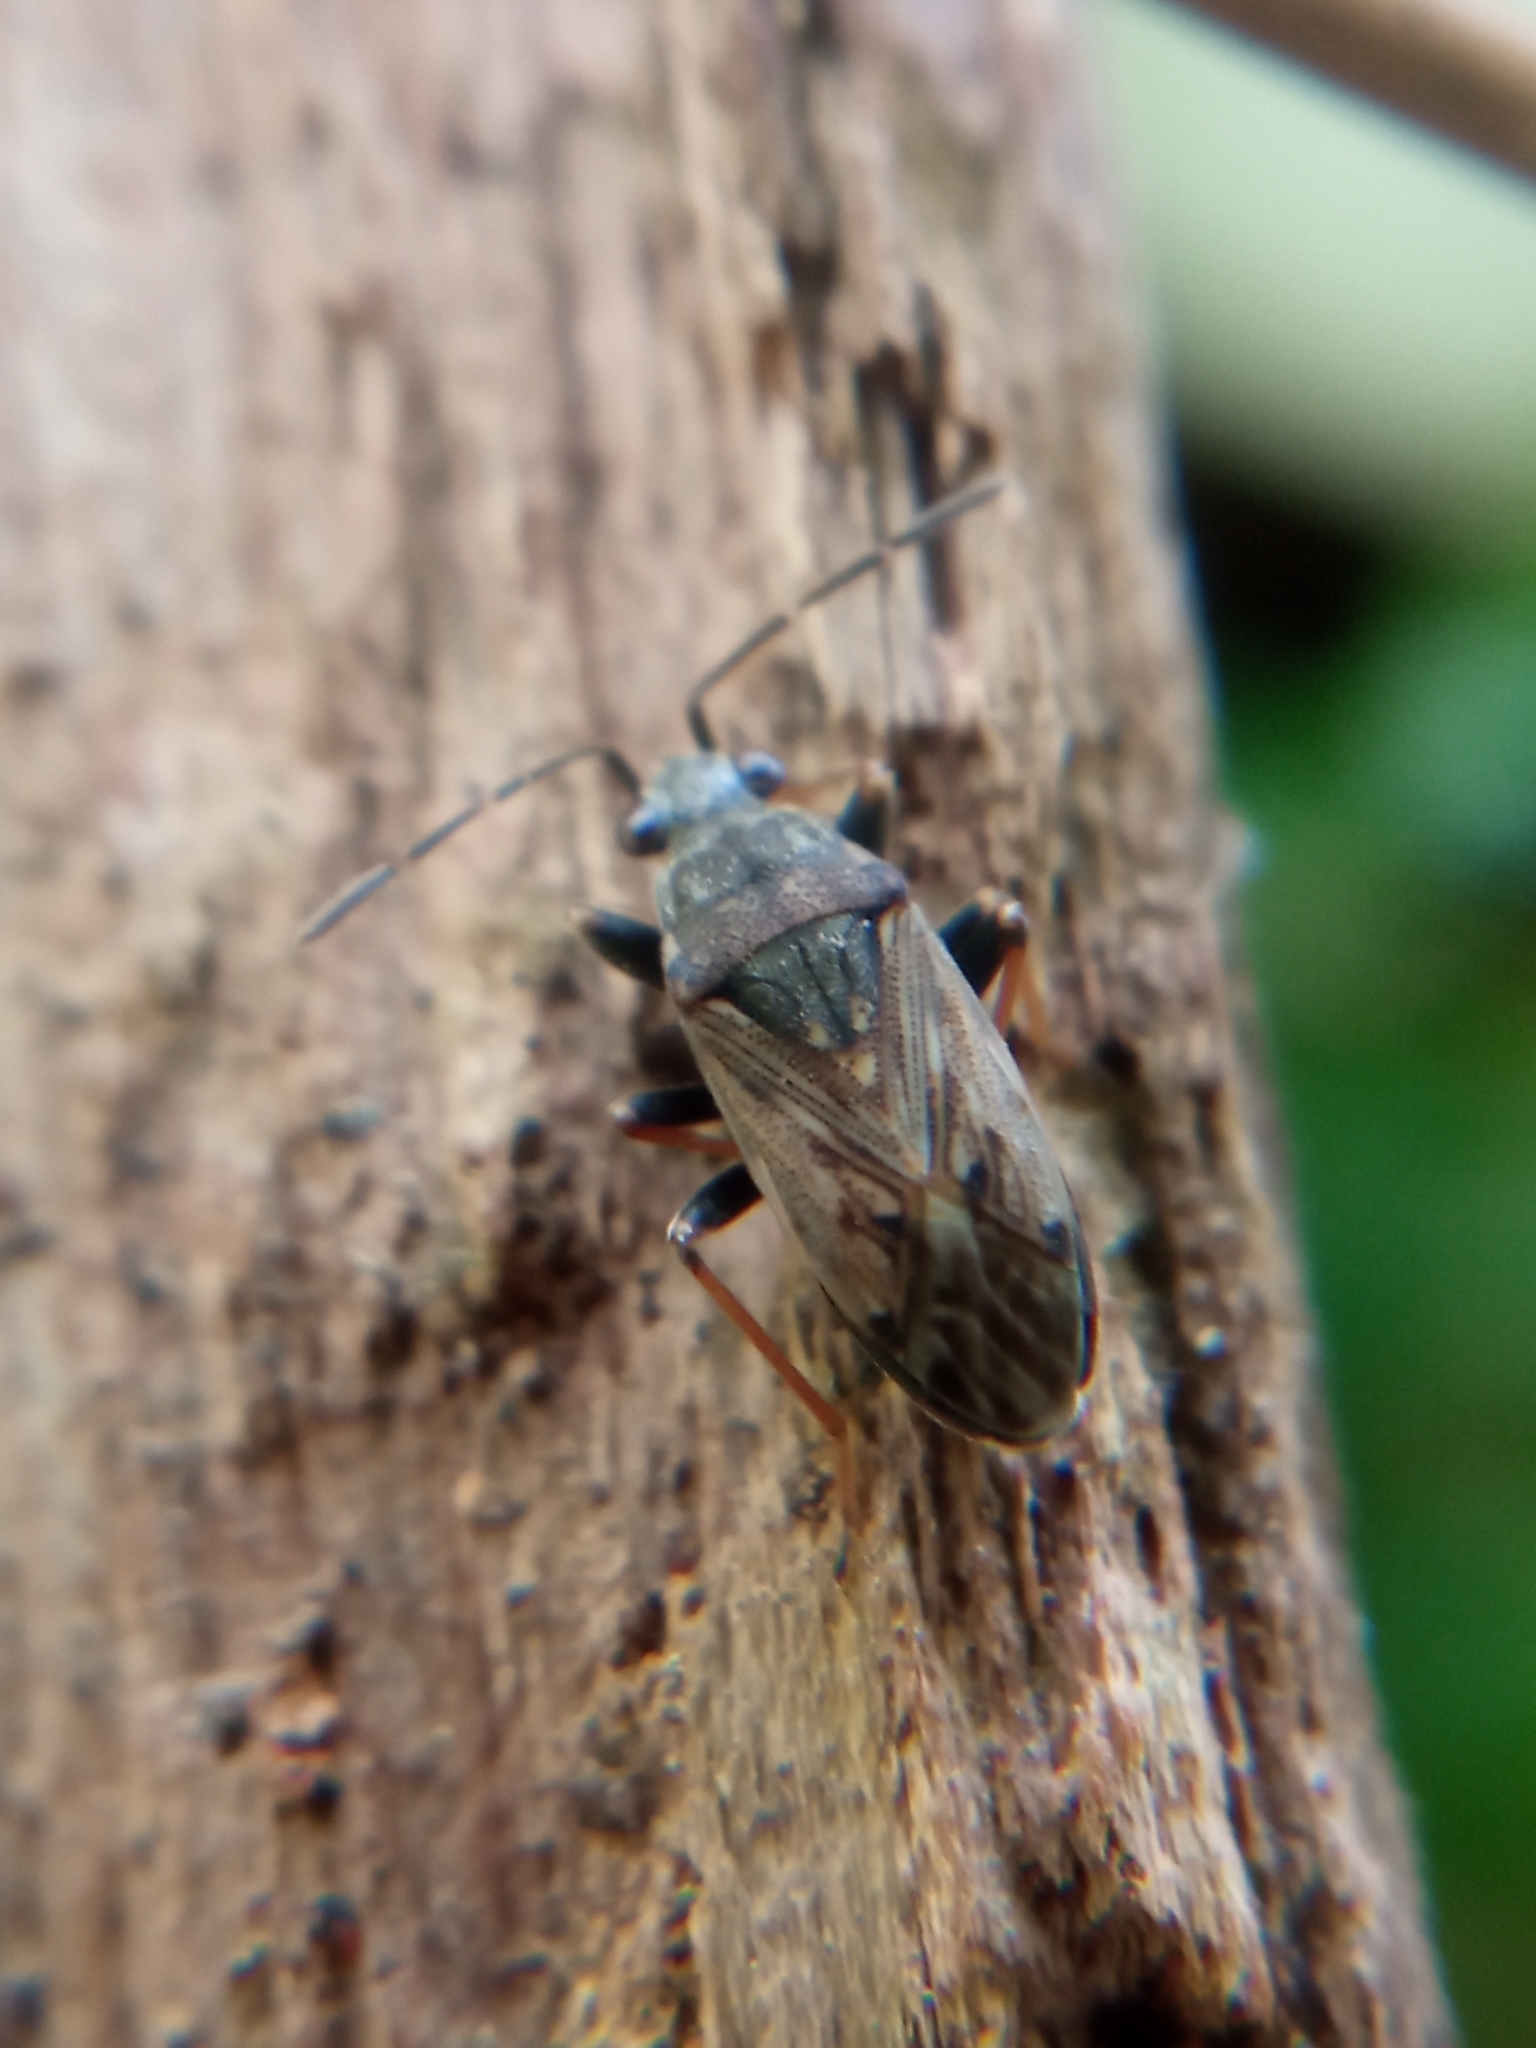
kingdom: Animalia
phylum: Arthropoda
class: Insecta
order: Hemiptera
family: Rhyparochromidae
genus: Peritrechus
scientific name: Peritrechus gracilicornis
